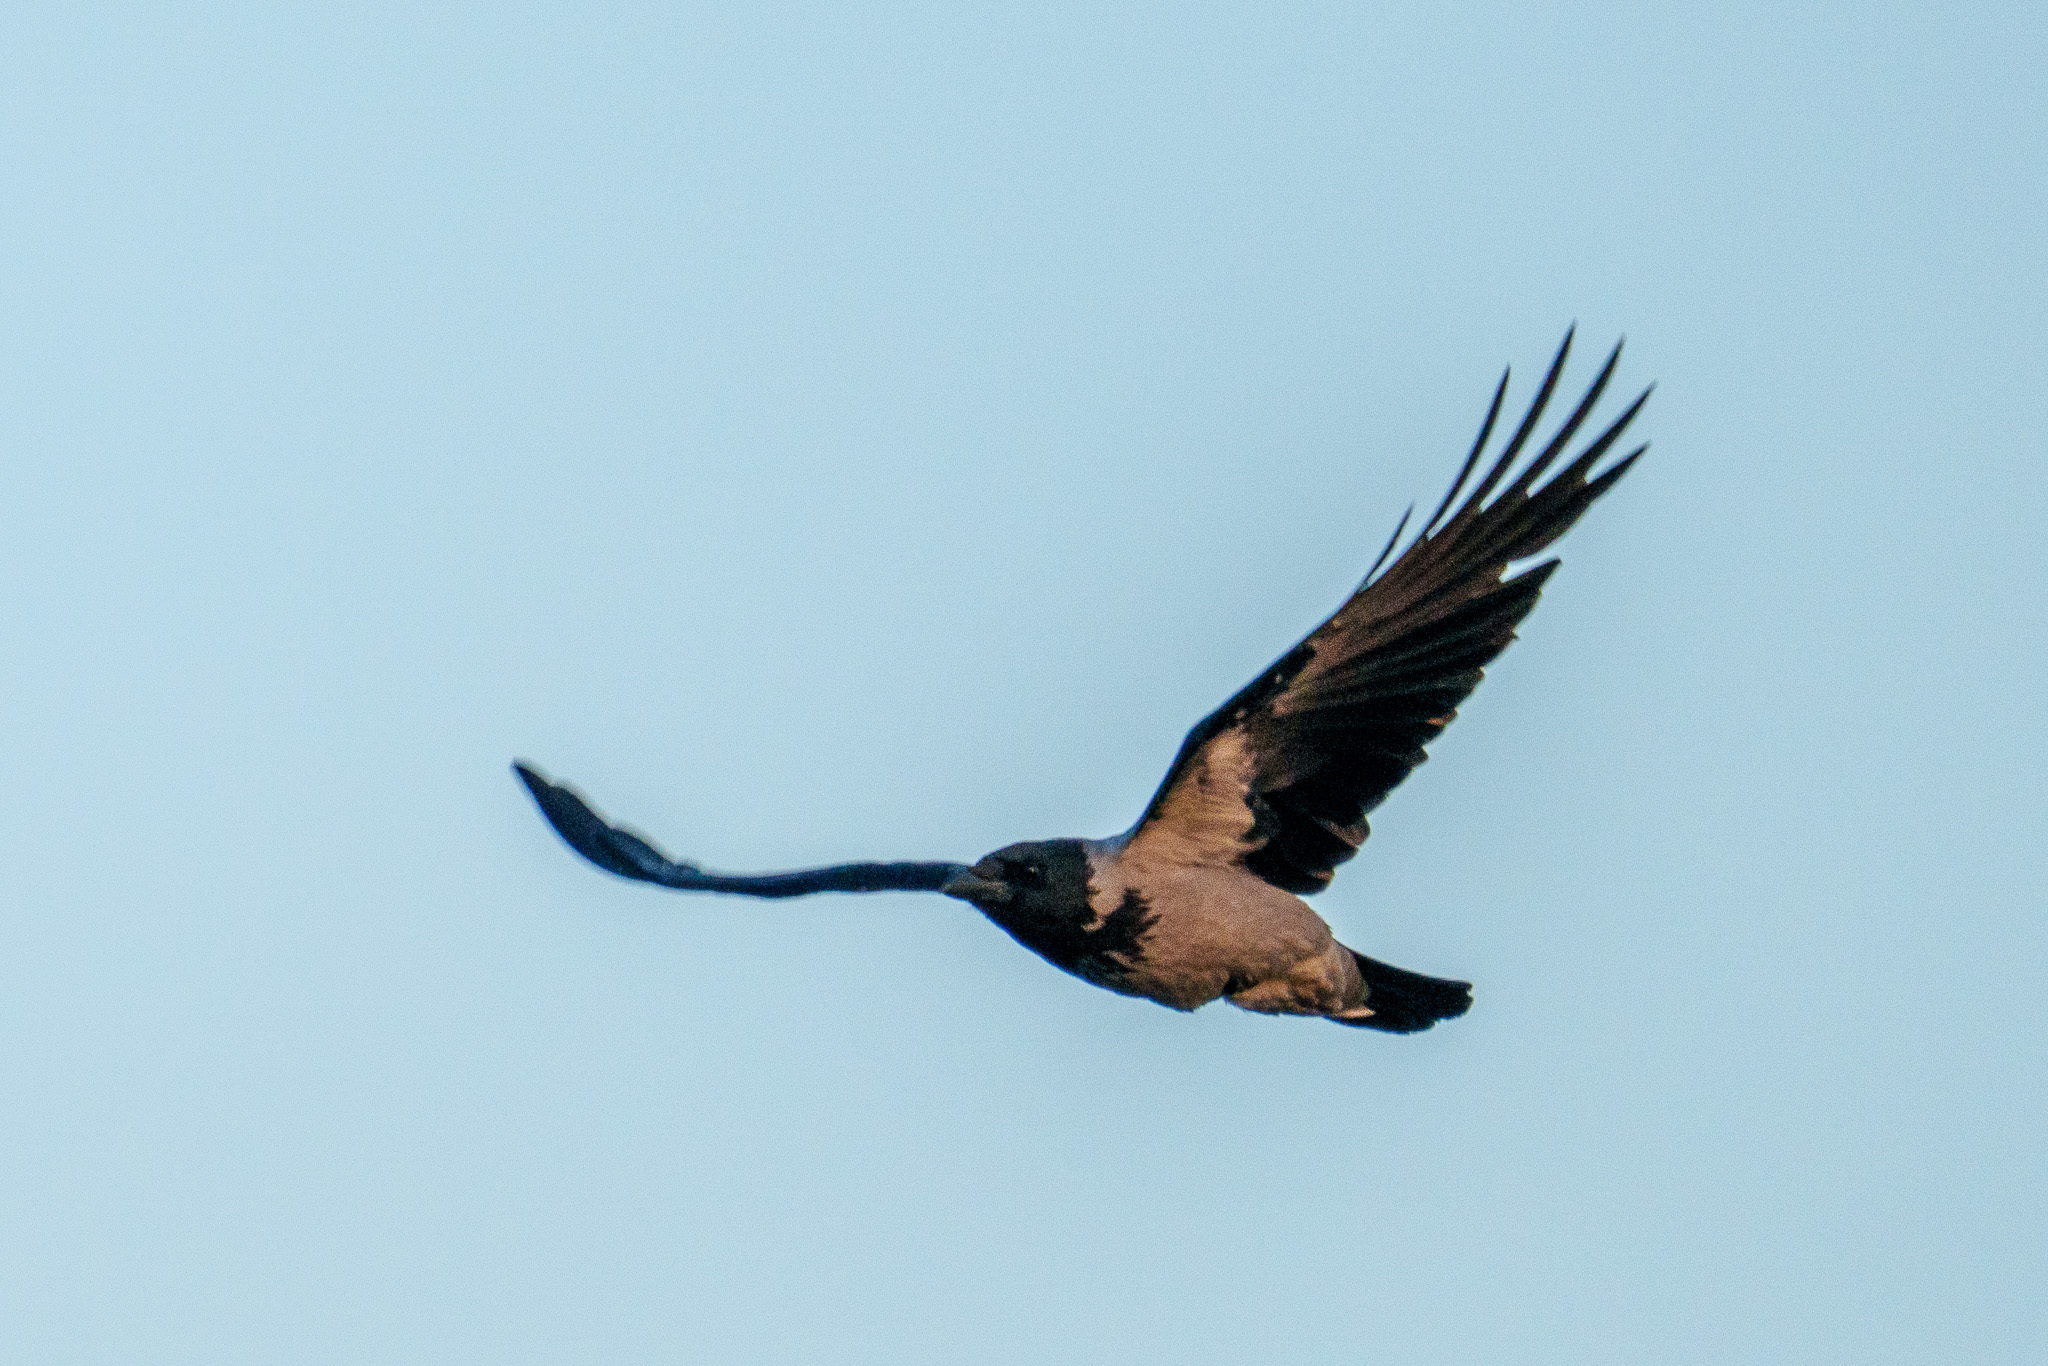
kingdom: Animalia
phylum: Chordata
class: Aves
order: Passeriformes
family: Corvidae
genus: Corvus
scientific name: Corvus cornix
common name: Hooded crow
